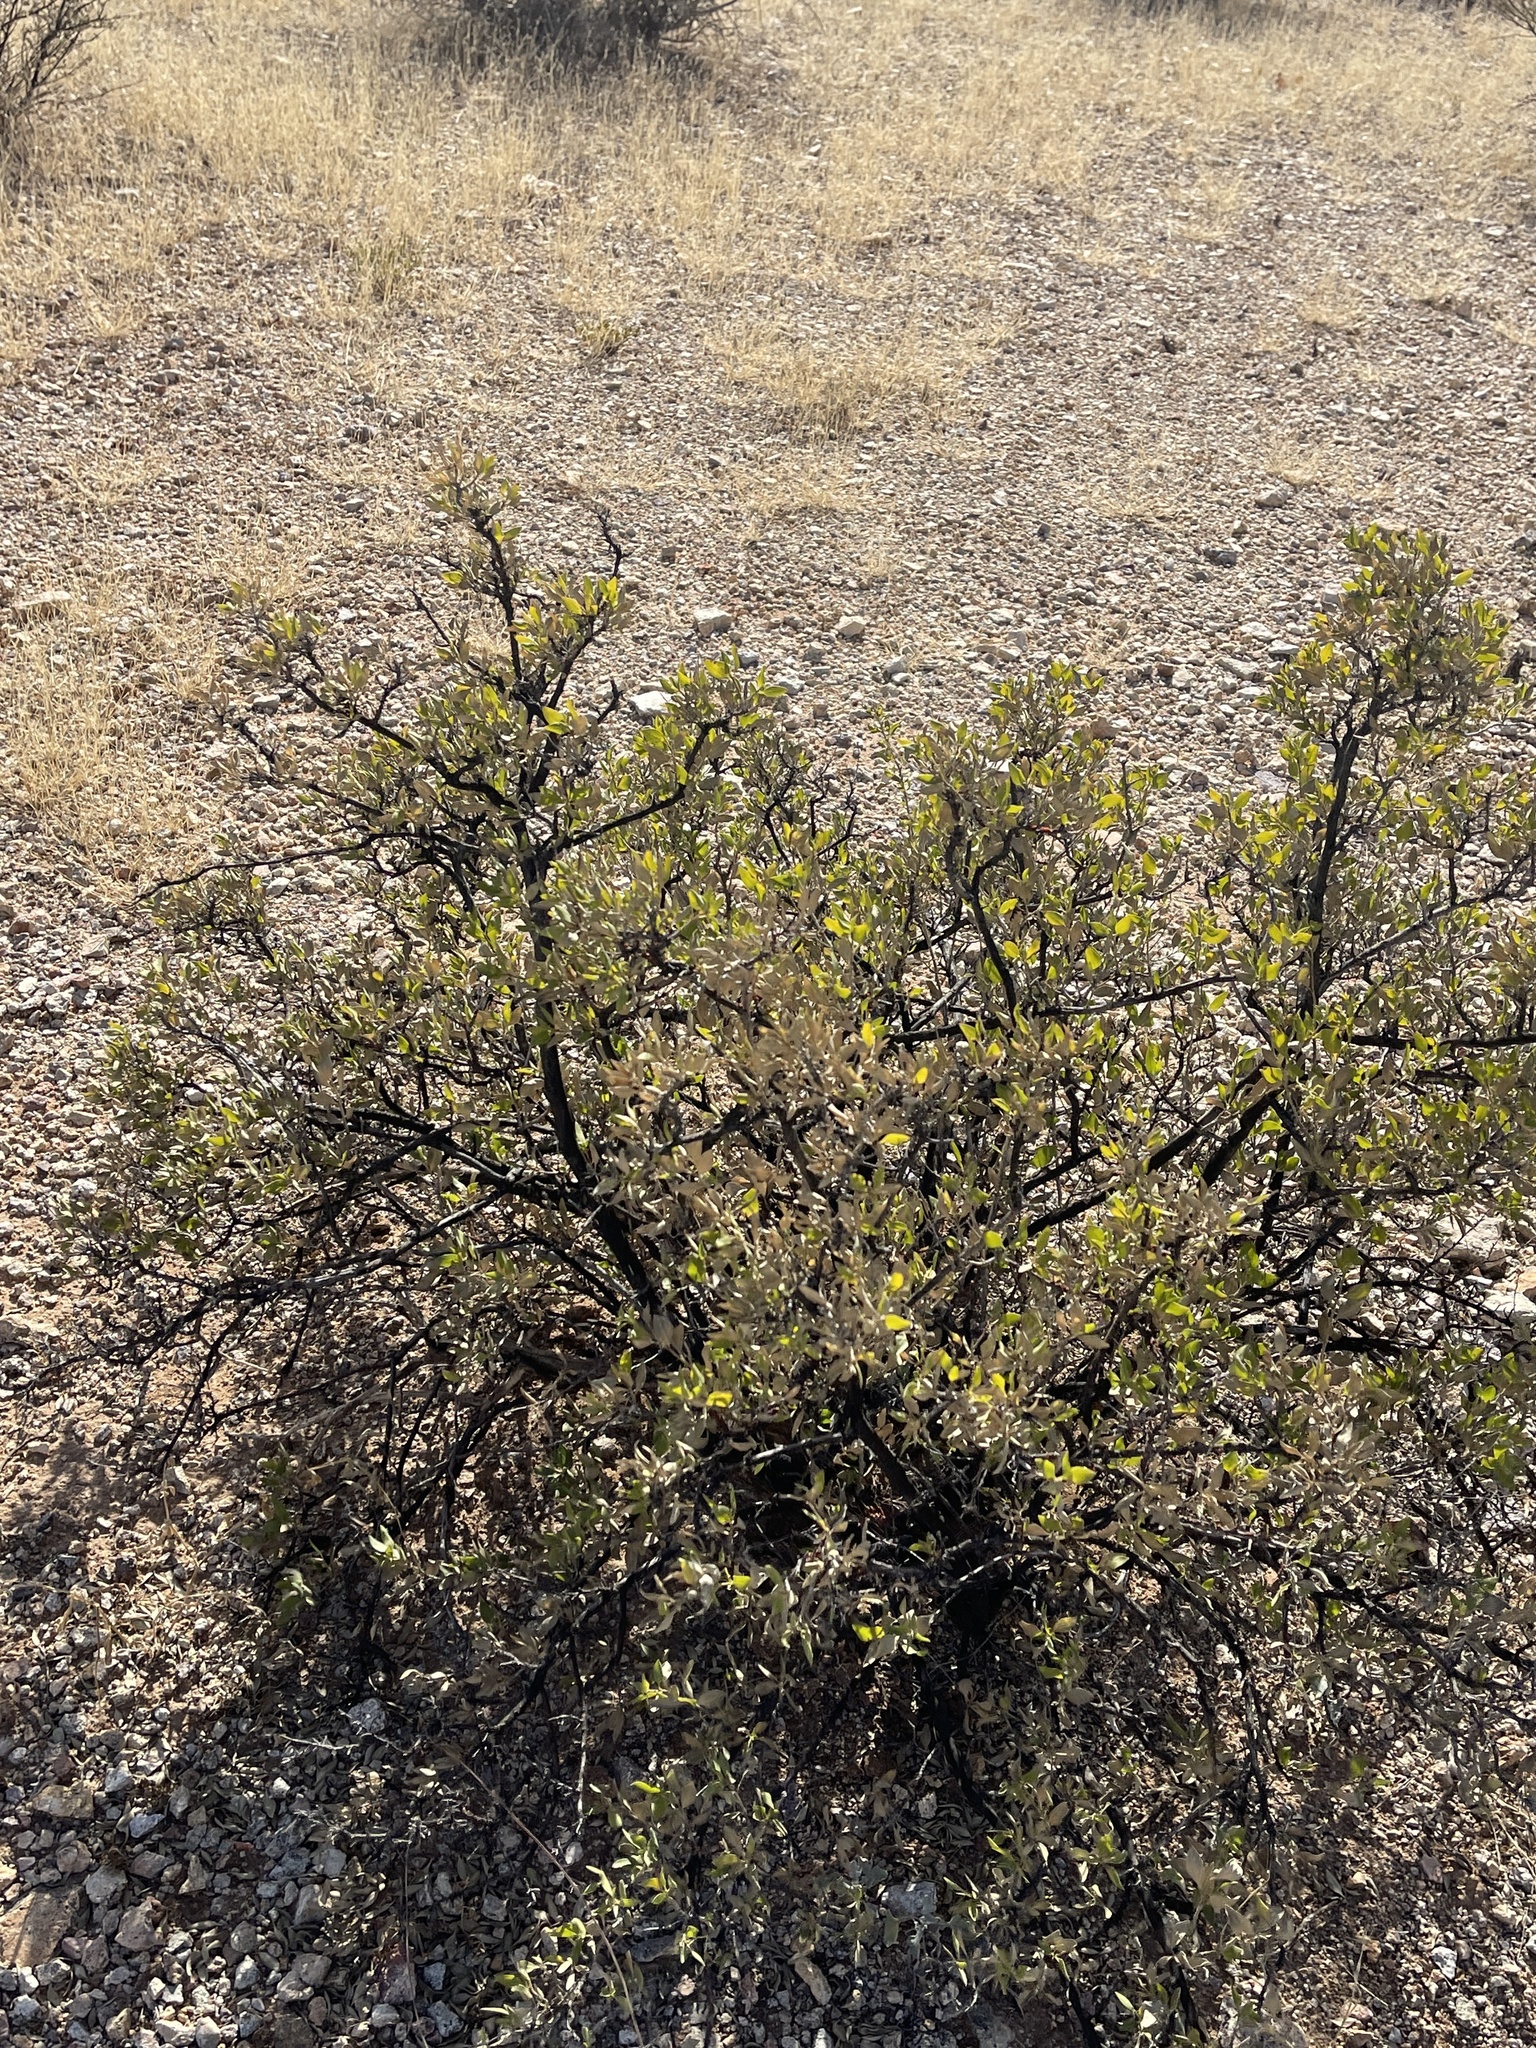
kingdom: Plantae
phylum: Tracheophyta
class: Magnoliopsida
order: Asterales
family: Asteraceae
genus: Flourensia
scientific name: Flourensia cernua
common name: Varnishbush
